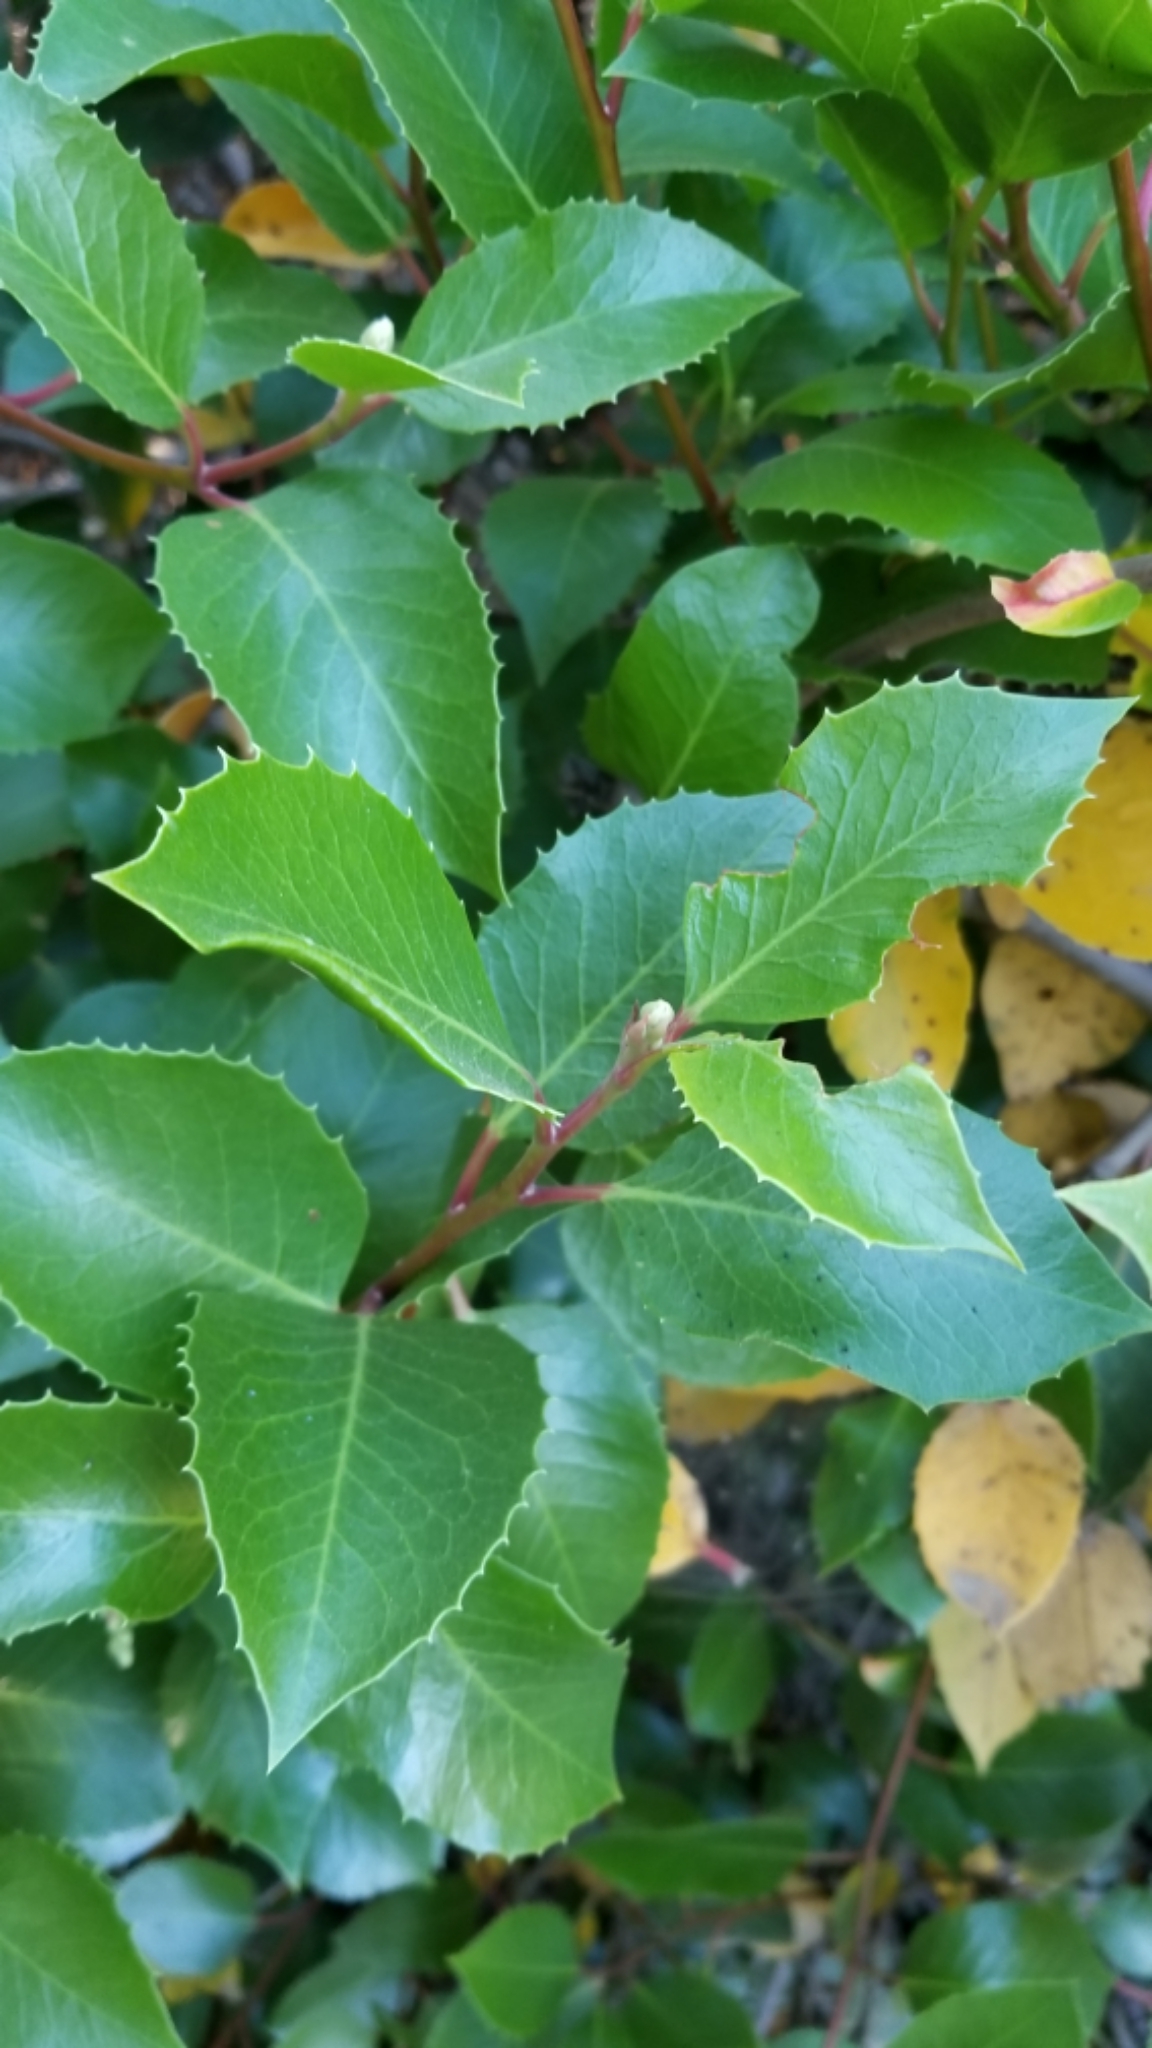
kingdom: Plantae
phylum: Tracheophyta
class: Magnoliopsida
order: Sapindales
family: Anacardiaceae
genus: Rhus
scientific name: Rhus
